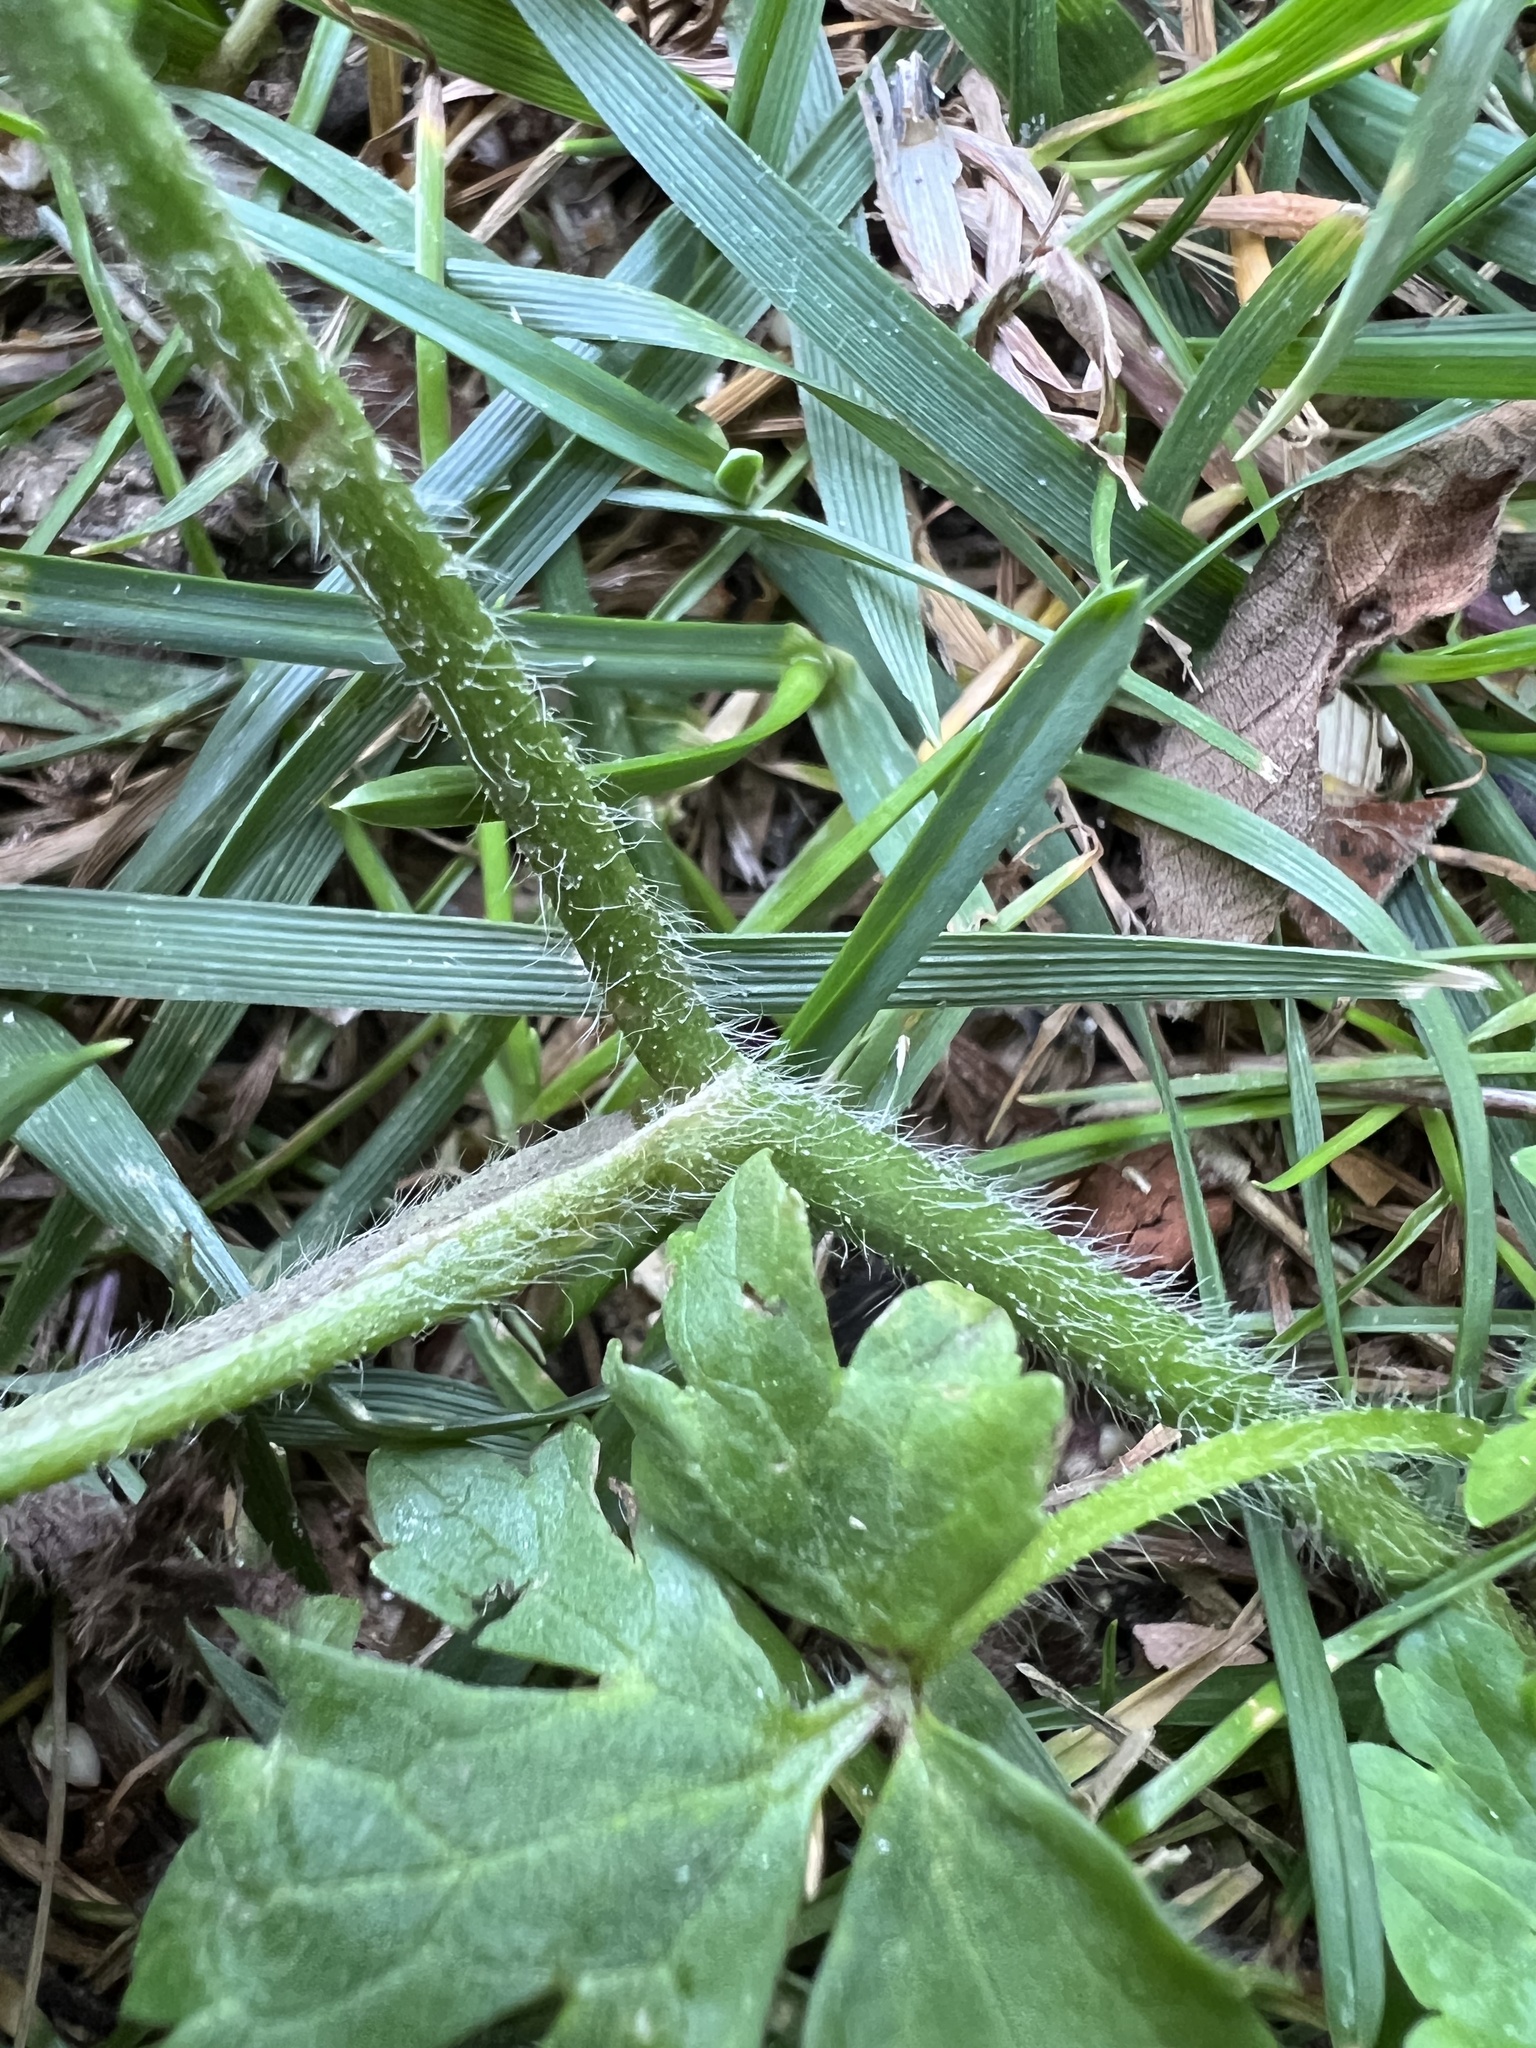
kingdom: Plantae
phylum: Tracheophyta
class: Magnoliopsida
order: Ranunculales
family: Ranunculaceae
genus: Ranunculus
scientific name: Ranunculus bulbosus
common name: Bulbous buttercup
